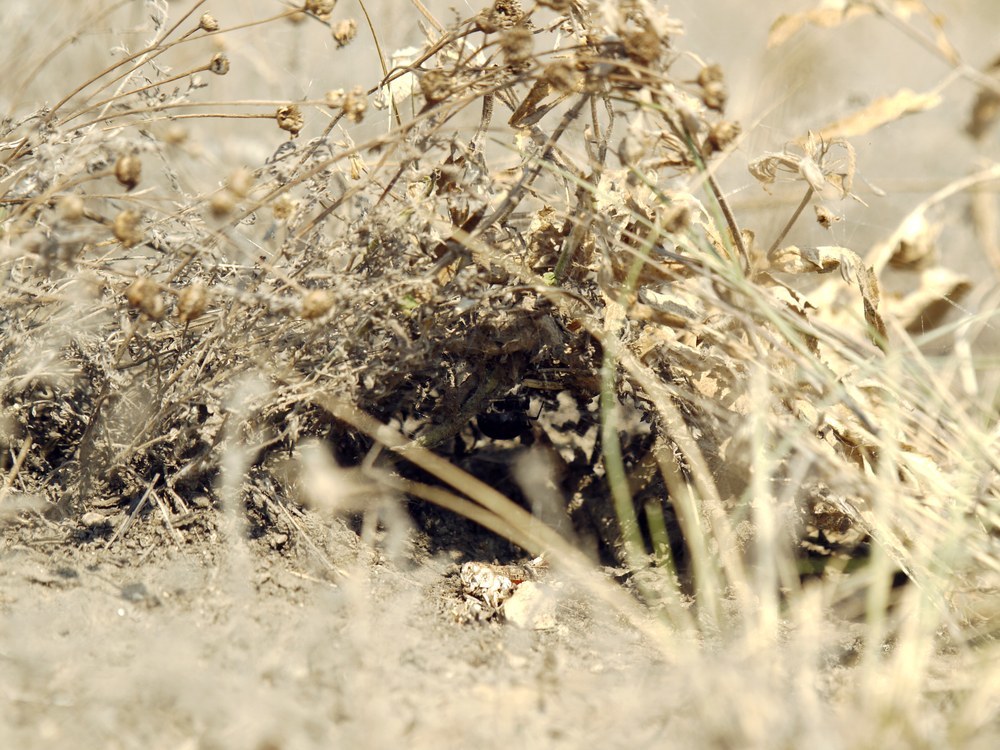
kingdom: Animalia
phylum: Arthropoda
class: Arachnida
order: Araneae
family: Theridiidae
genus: Latrodectus
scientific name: Latrodectus tredecimguttatus
